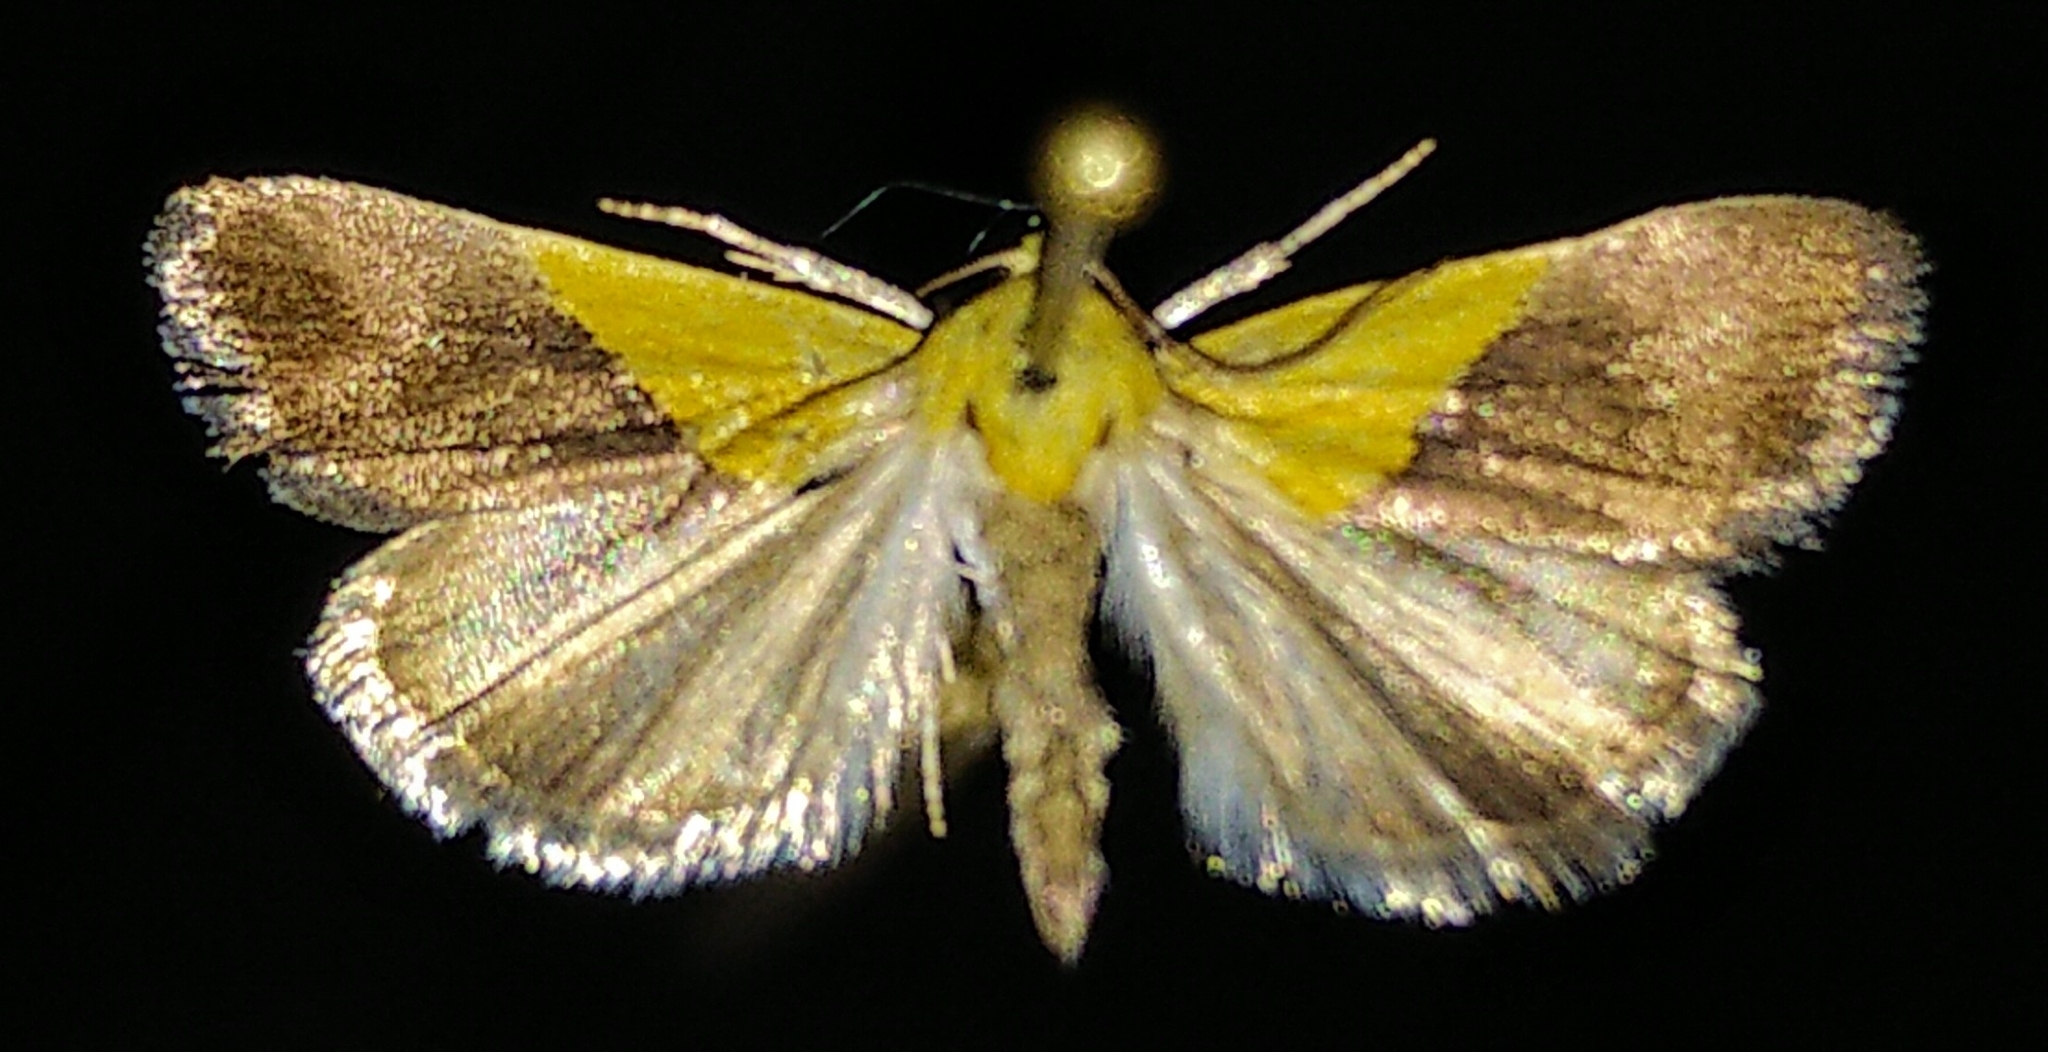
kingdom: Animalia
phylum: Arthropoda
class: Insecta
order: Lepidoptera
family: Noctuidae
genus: Acontia
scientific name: Acontia semiflava
